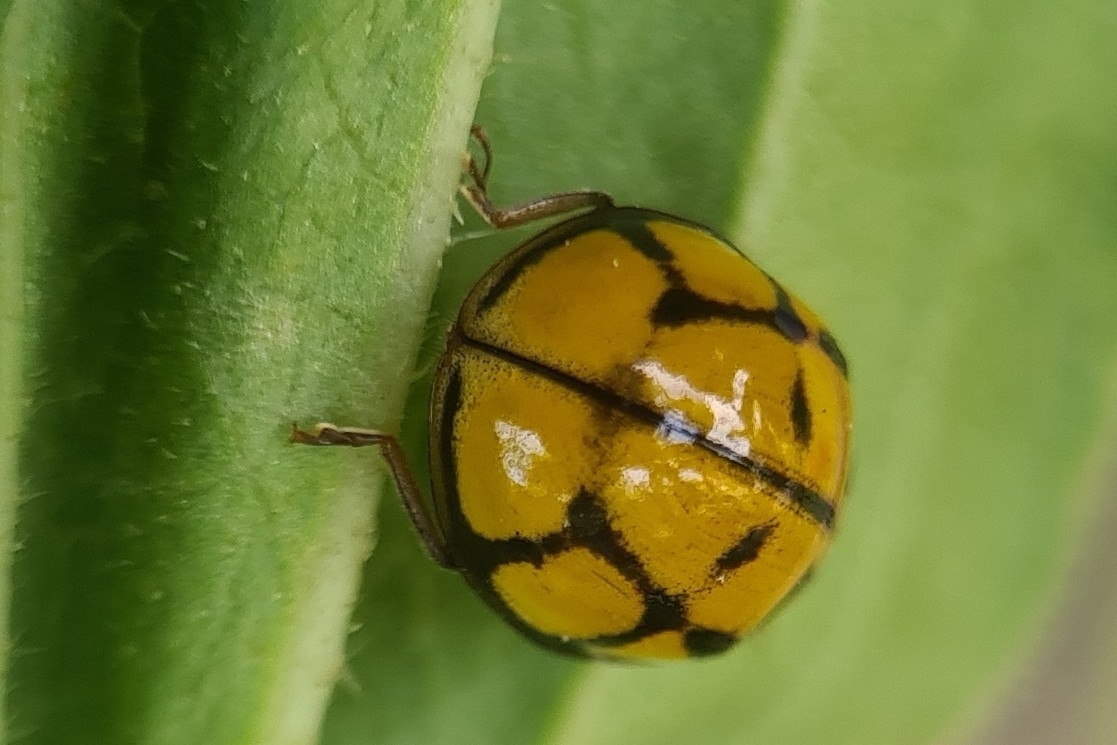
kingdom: Animalia
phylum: Arthropoda
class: Insecta
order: Coleoptera
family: Coccinellidae
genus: Harmonia
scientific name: Harmonia
